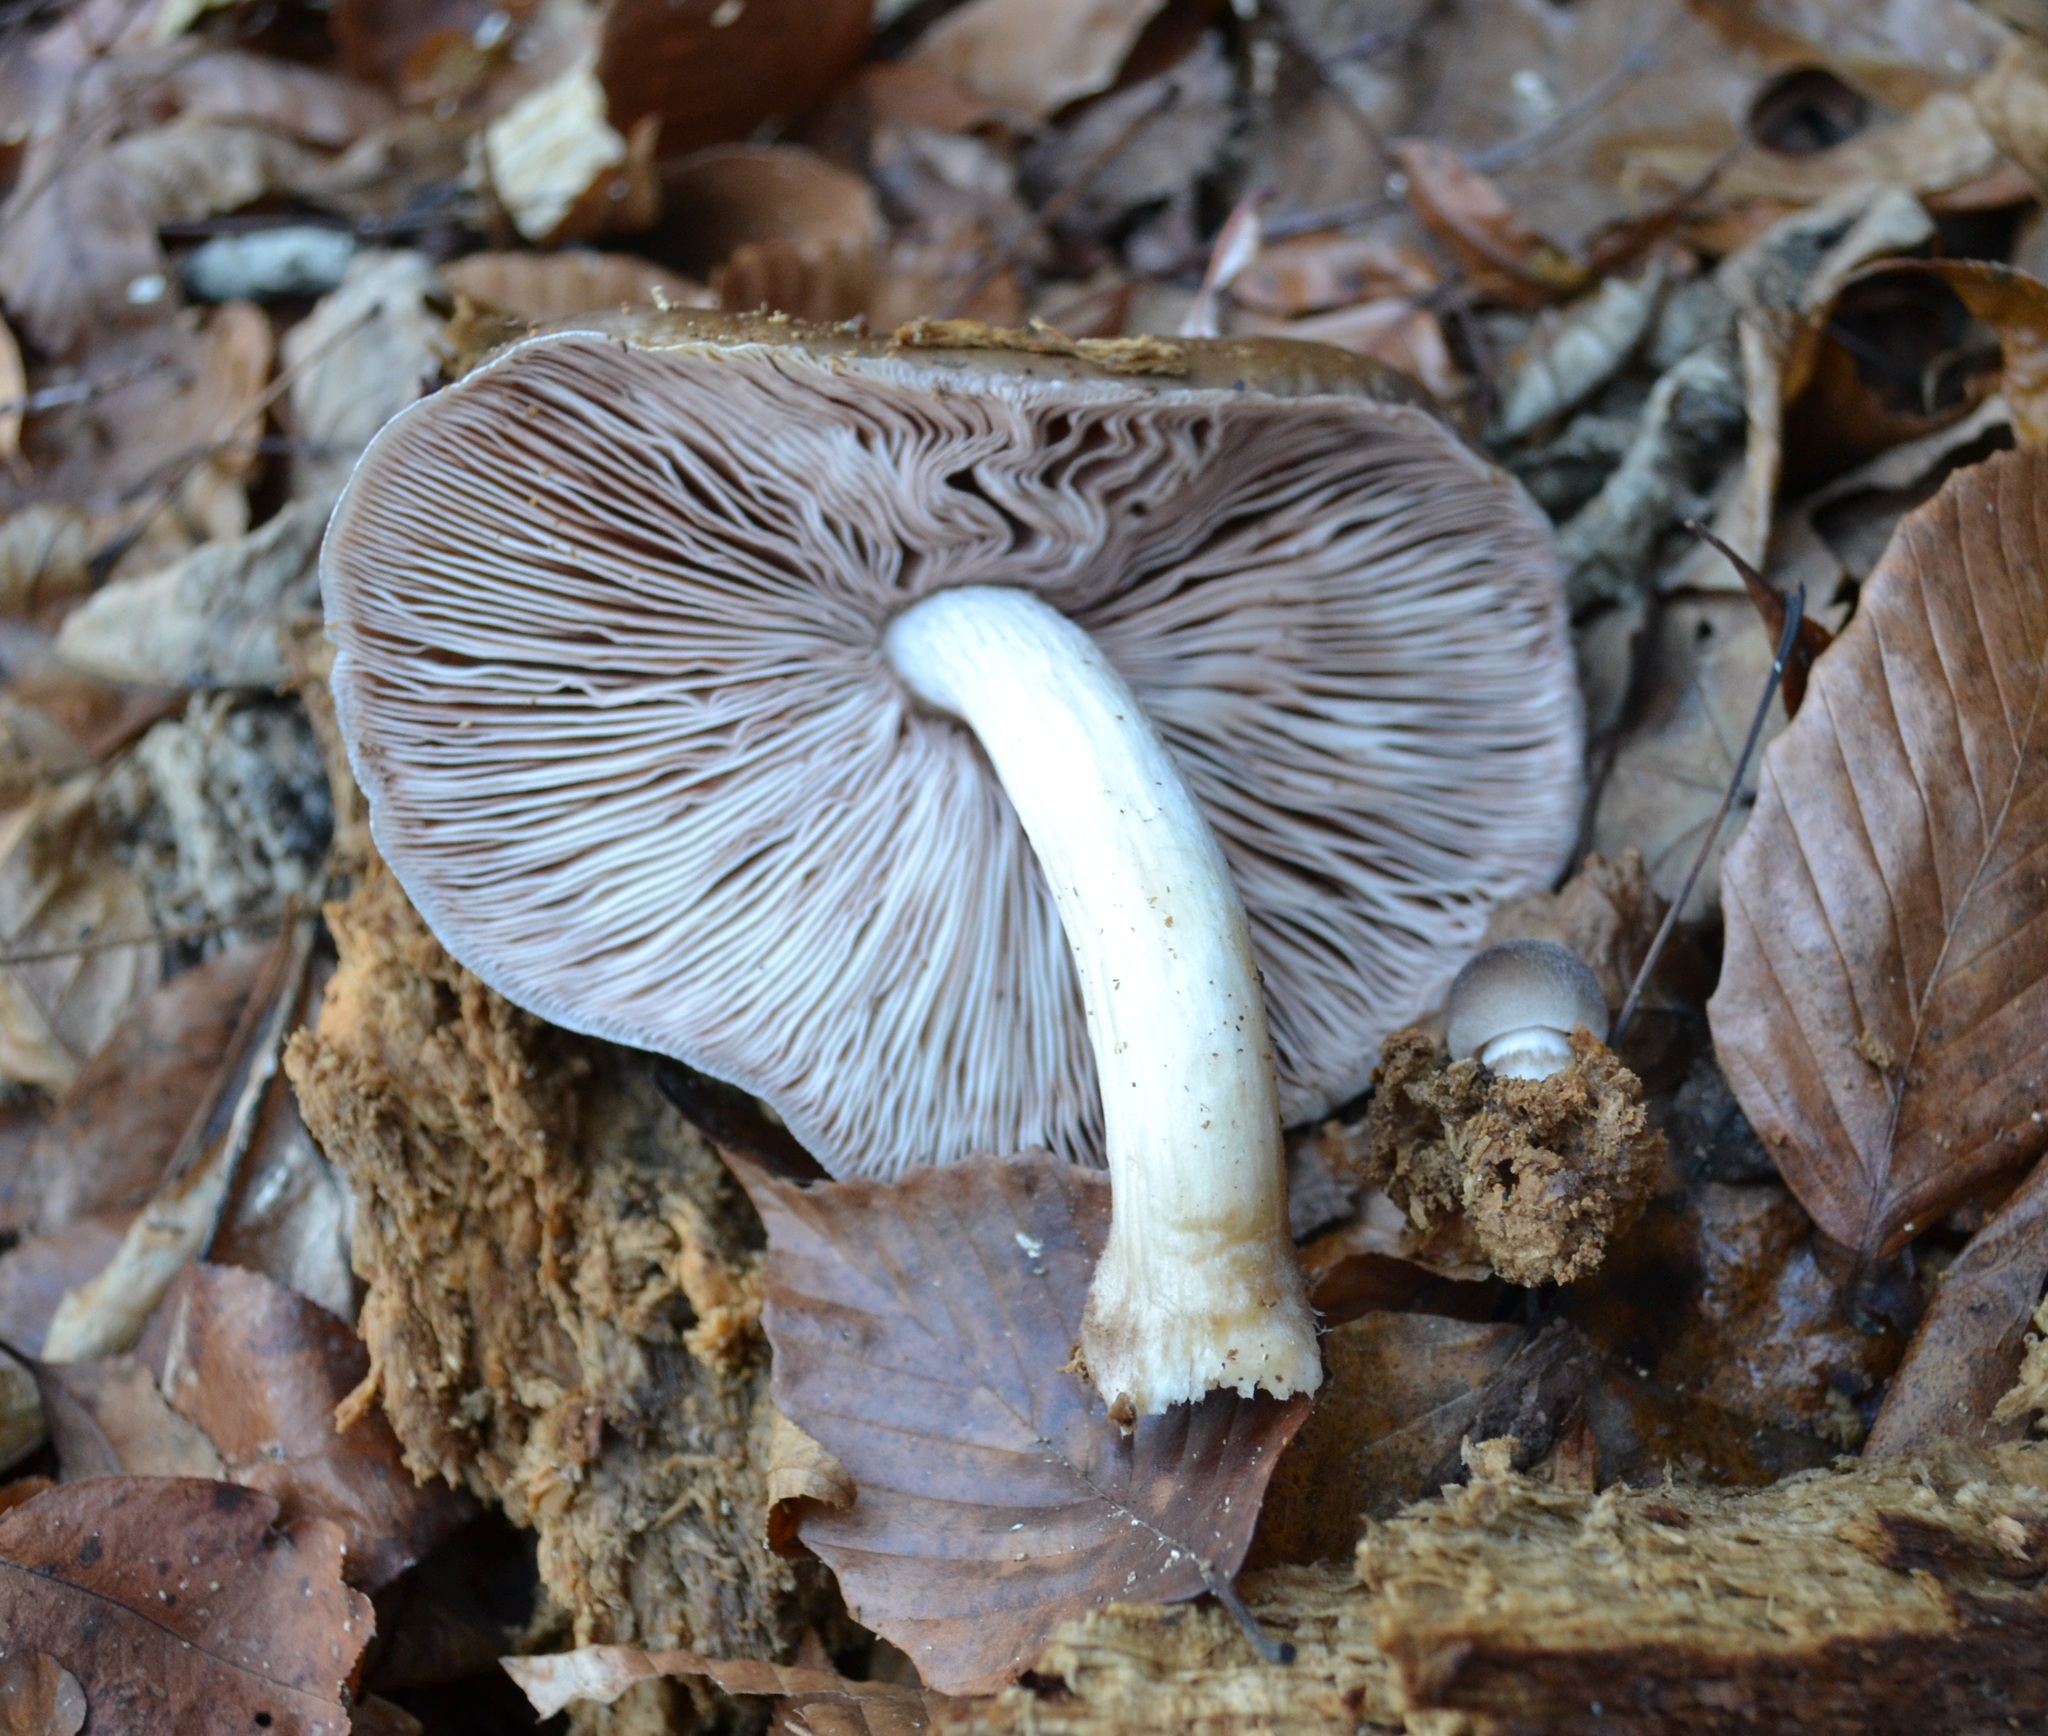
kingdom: Fungi
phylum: Basidiomycota
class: Agaricomycetes
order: Agaricales
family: Pluteaceae
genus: Pluteus
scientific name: Pluteus cervinus
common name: Deer shield
